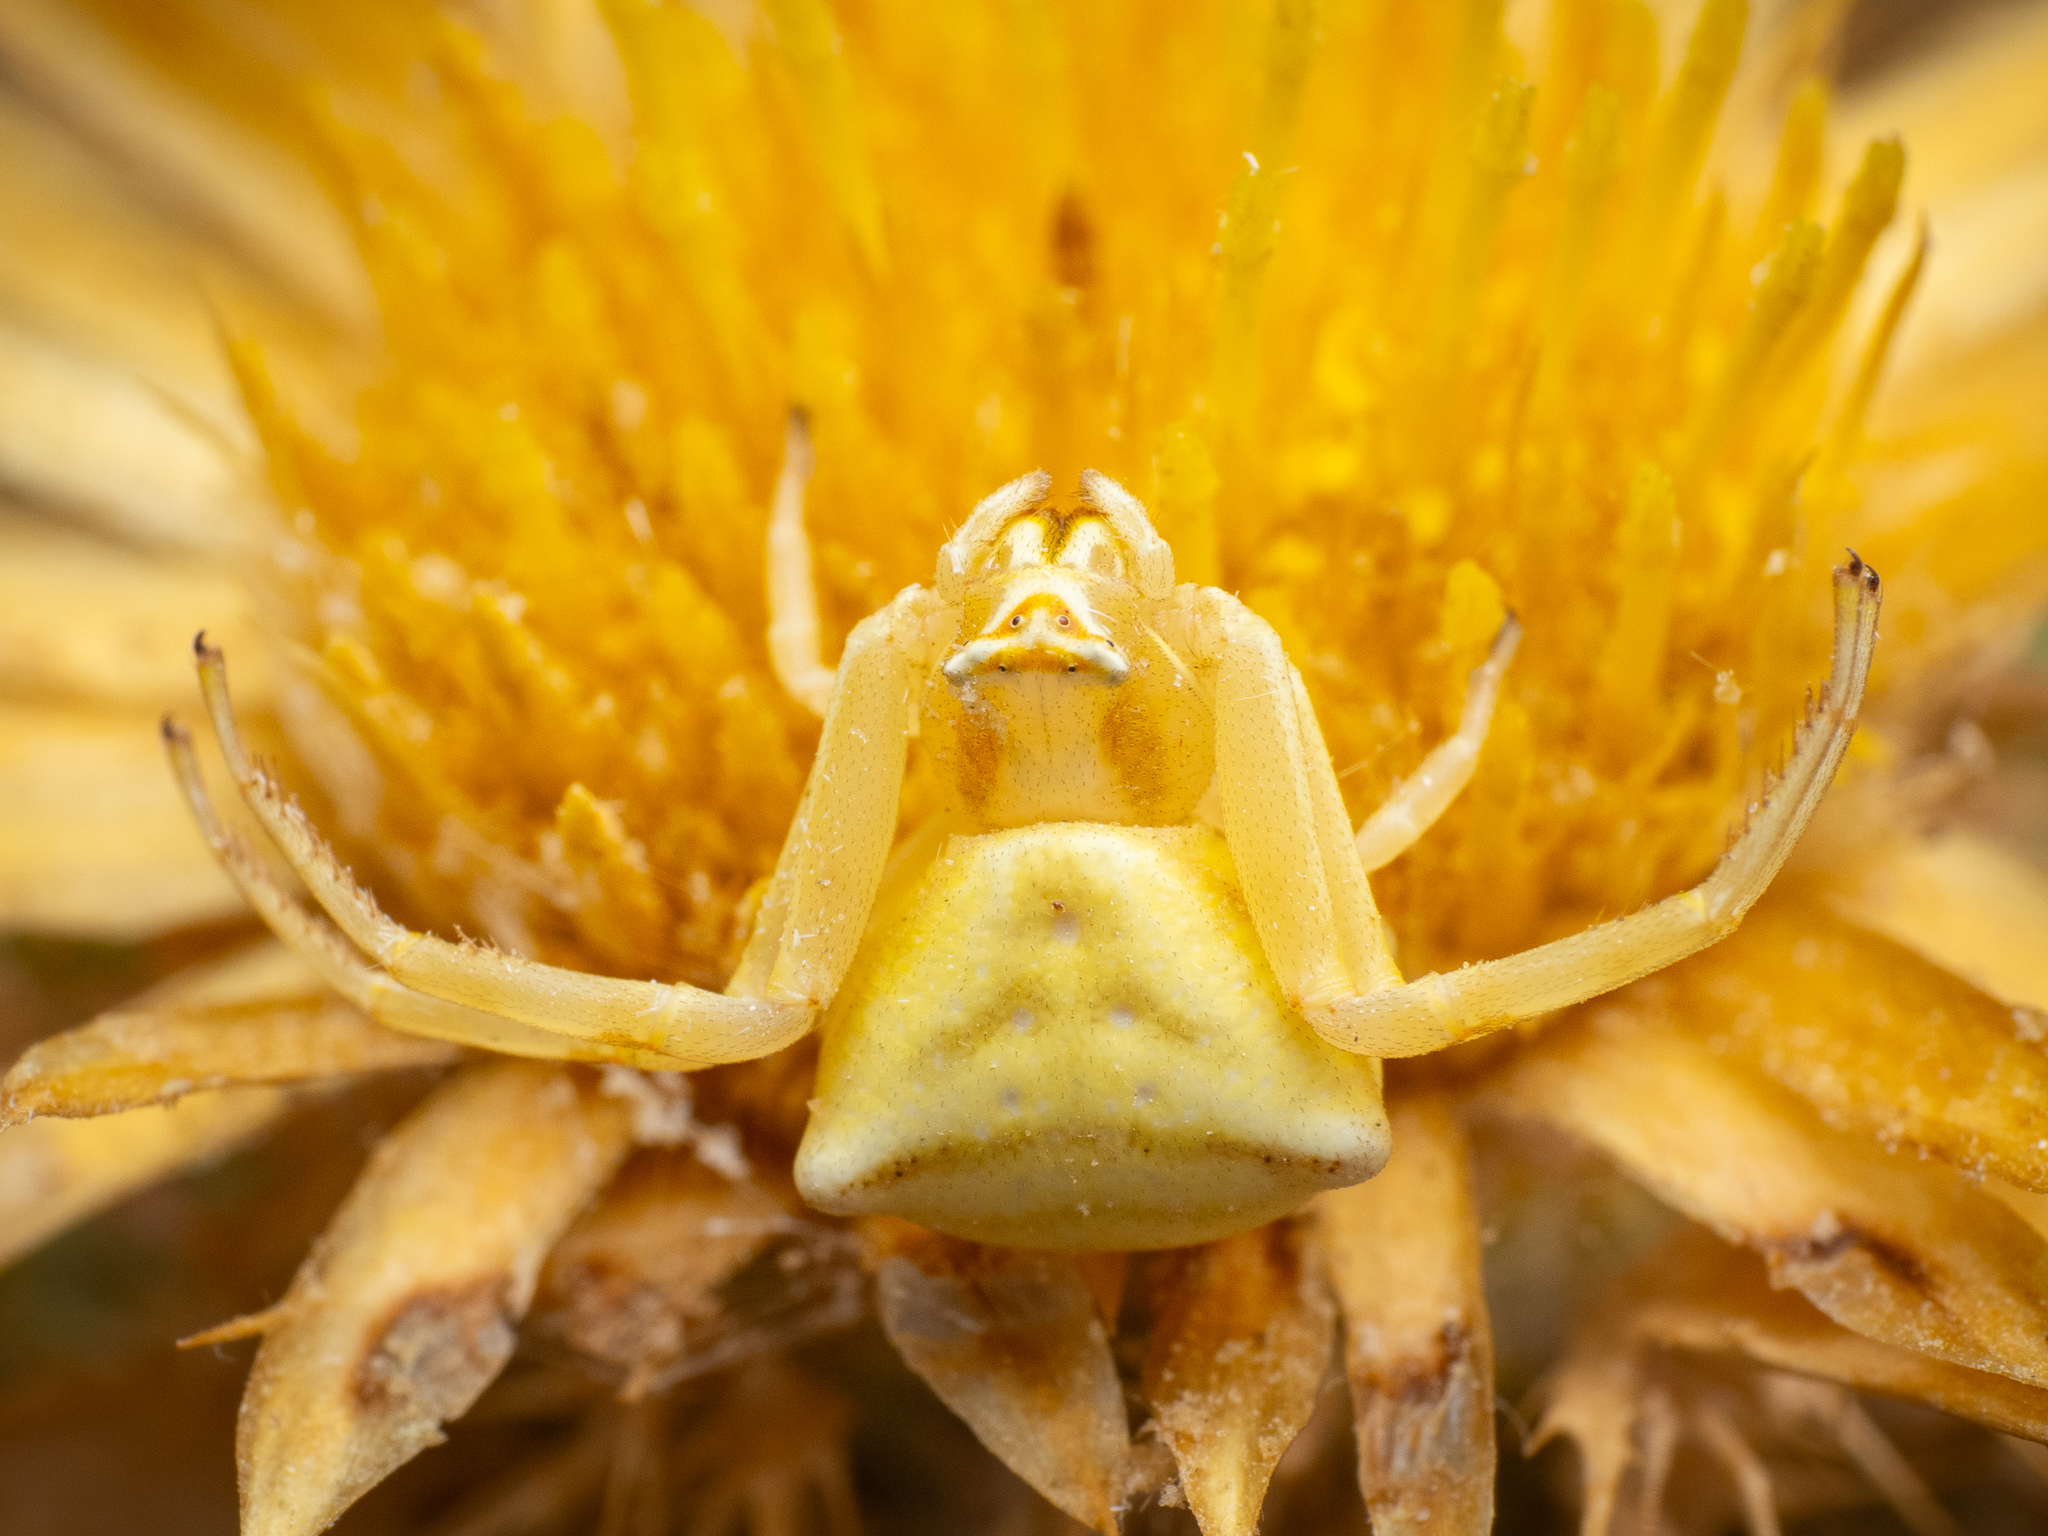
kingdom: Animalia
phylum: Arthropoda
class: Arachnida
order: Araneae
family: Thomisidae
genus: Thomisus
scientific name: Thomisus onustus
